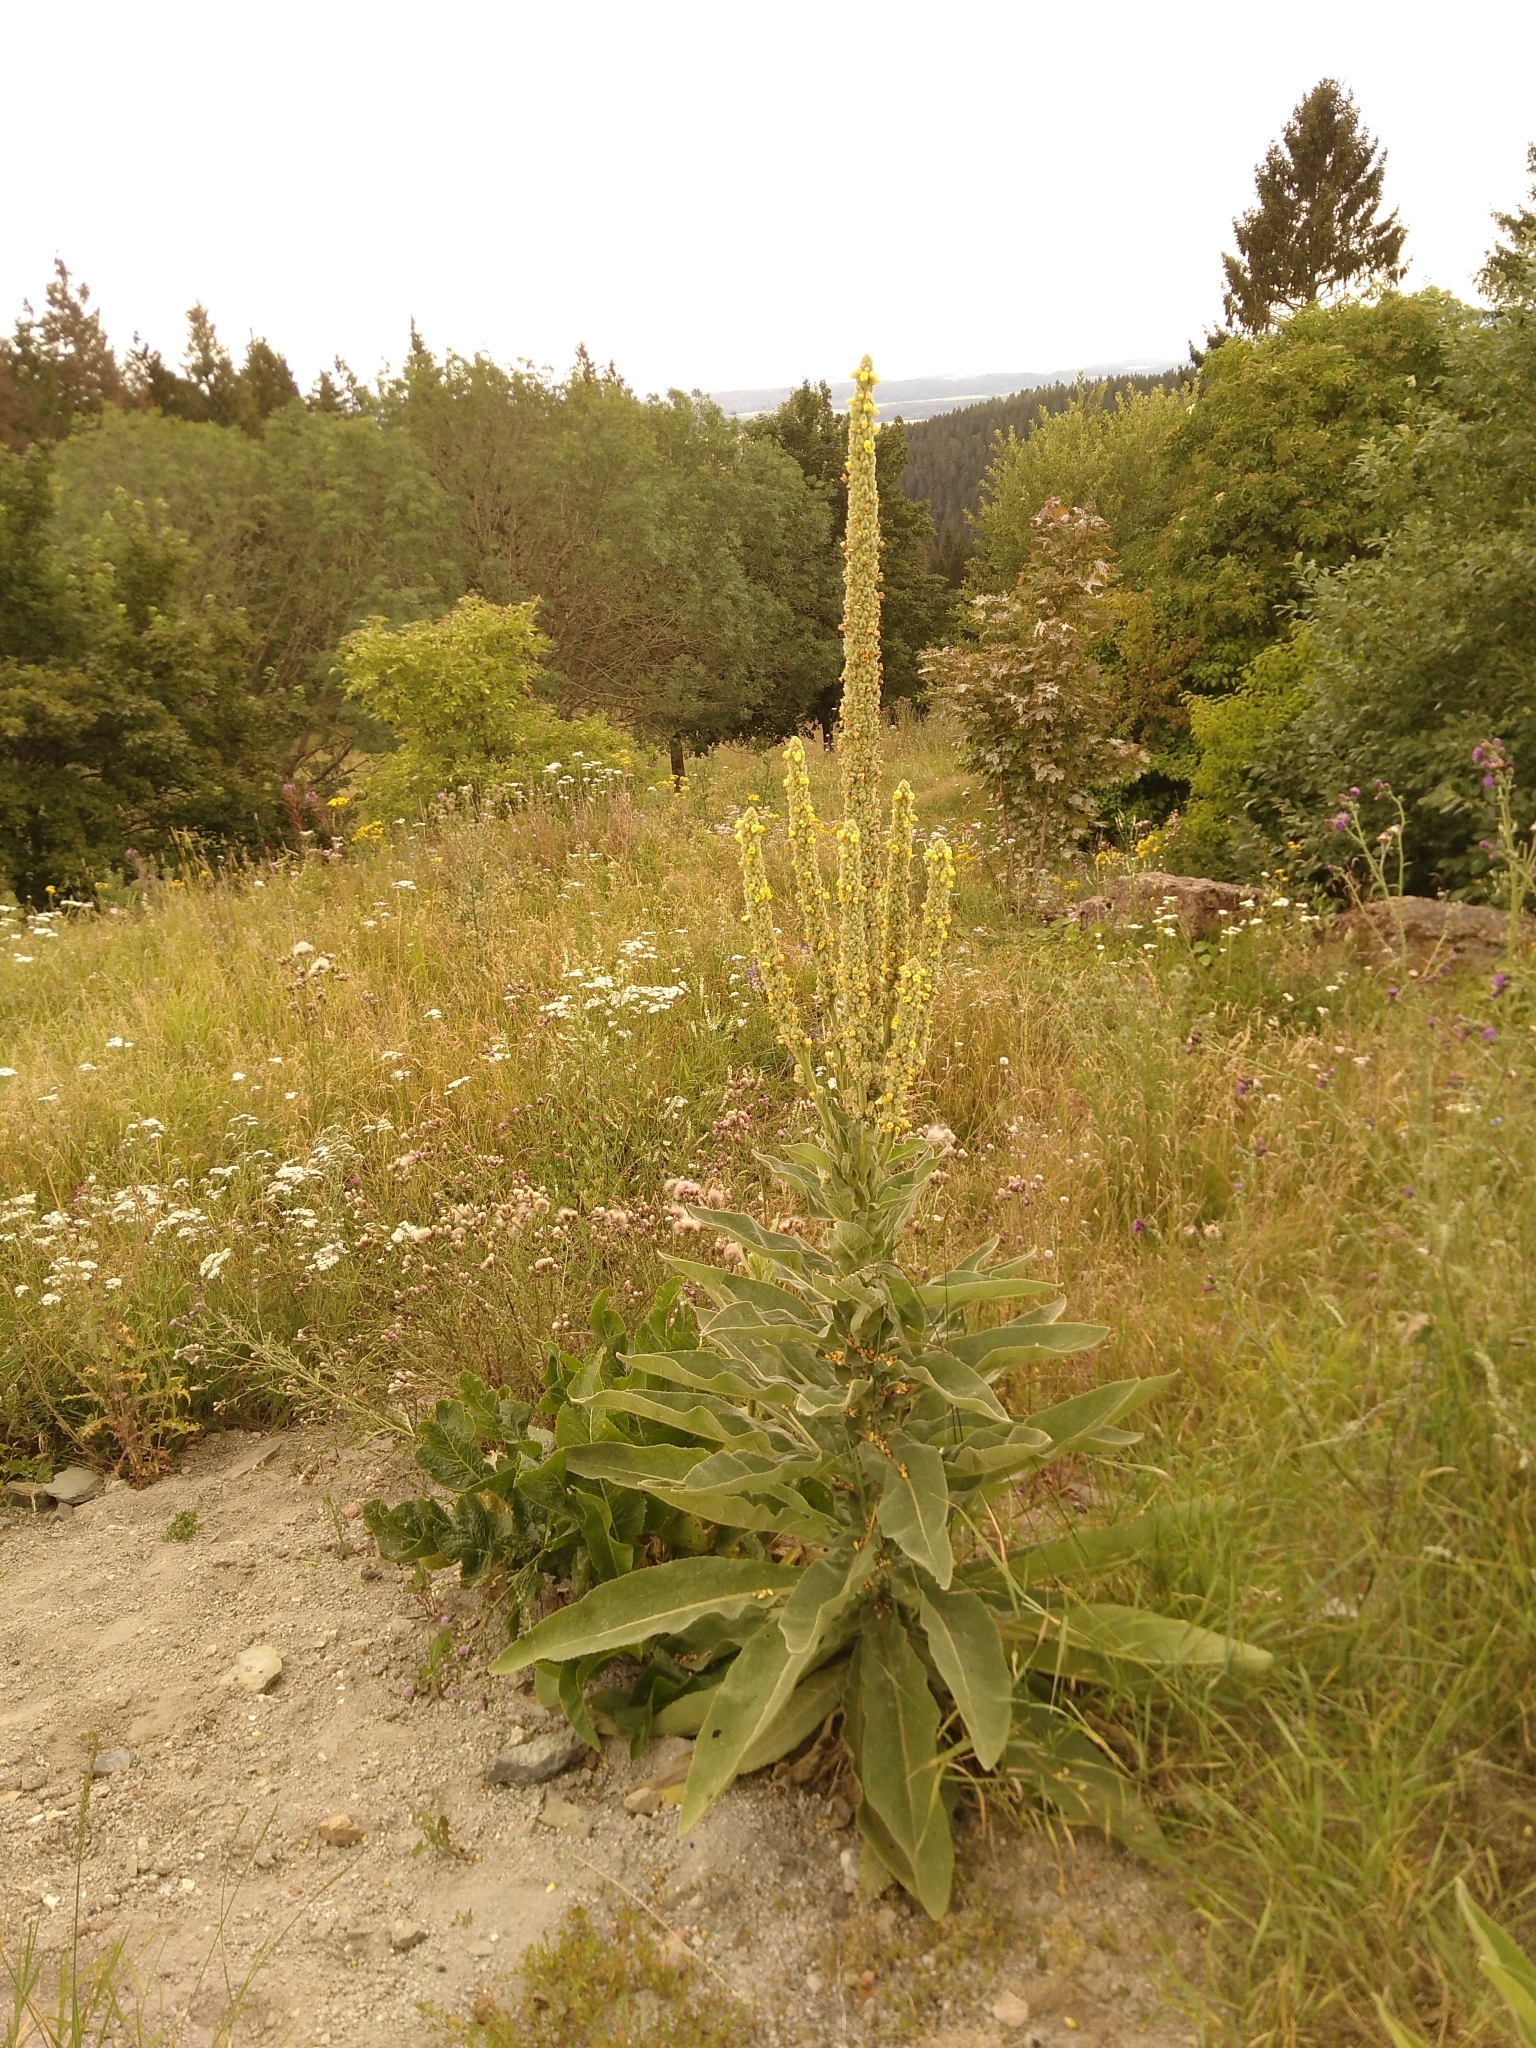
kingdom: Plantae
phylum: Tracheophyta
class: Magnoliopsida
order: Lamiales
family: Scrophulariaceae
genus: Verbascum
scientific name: Verbascum thapsus
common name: Common mullein
